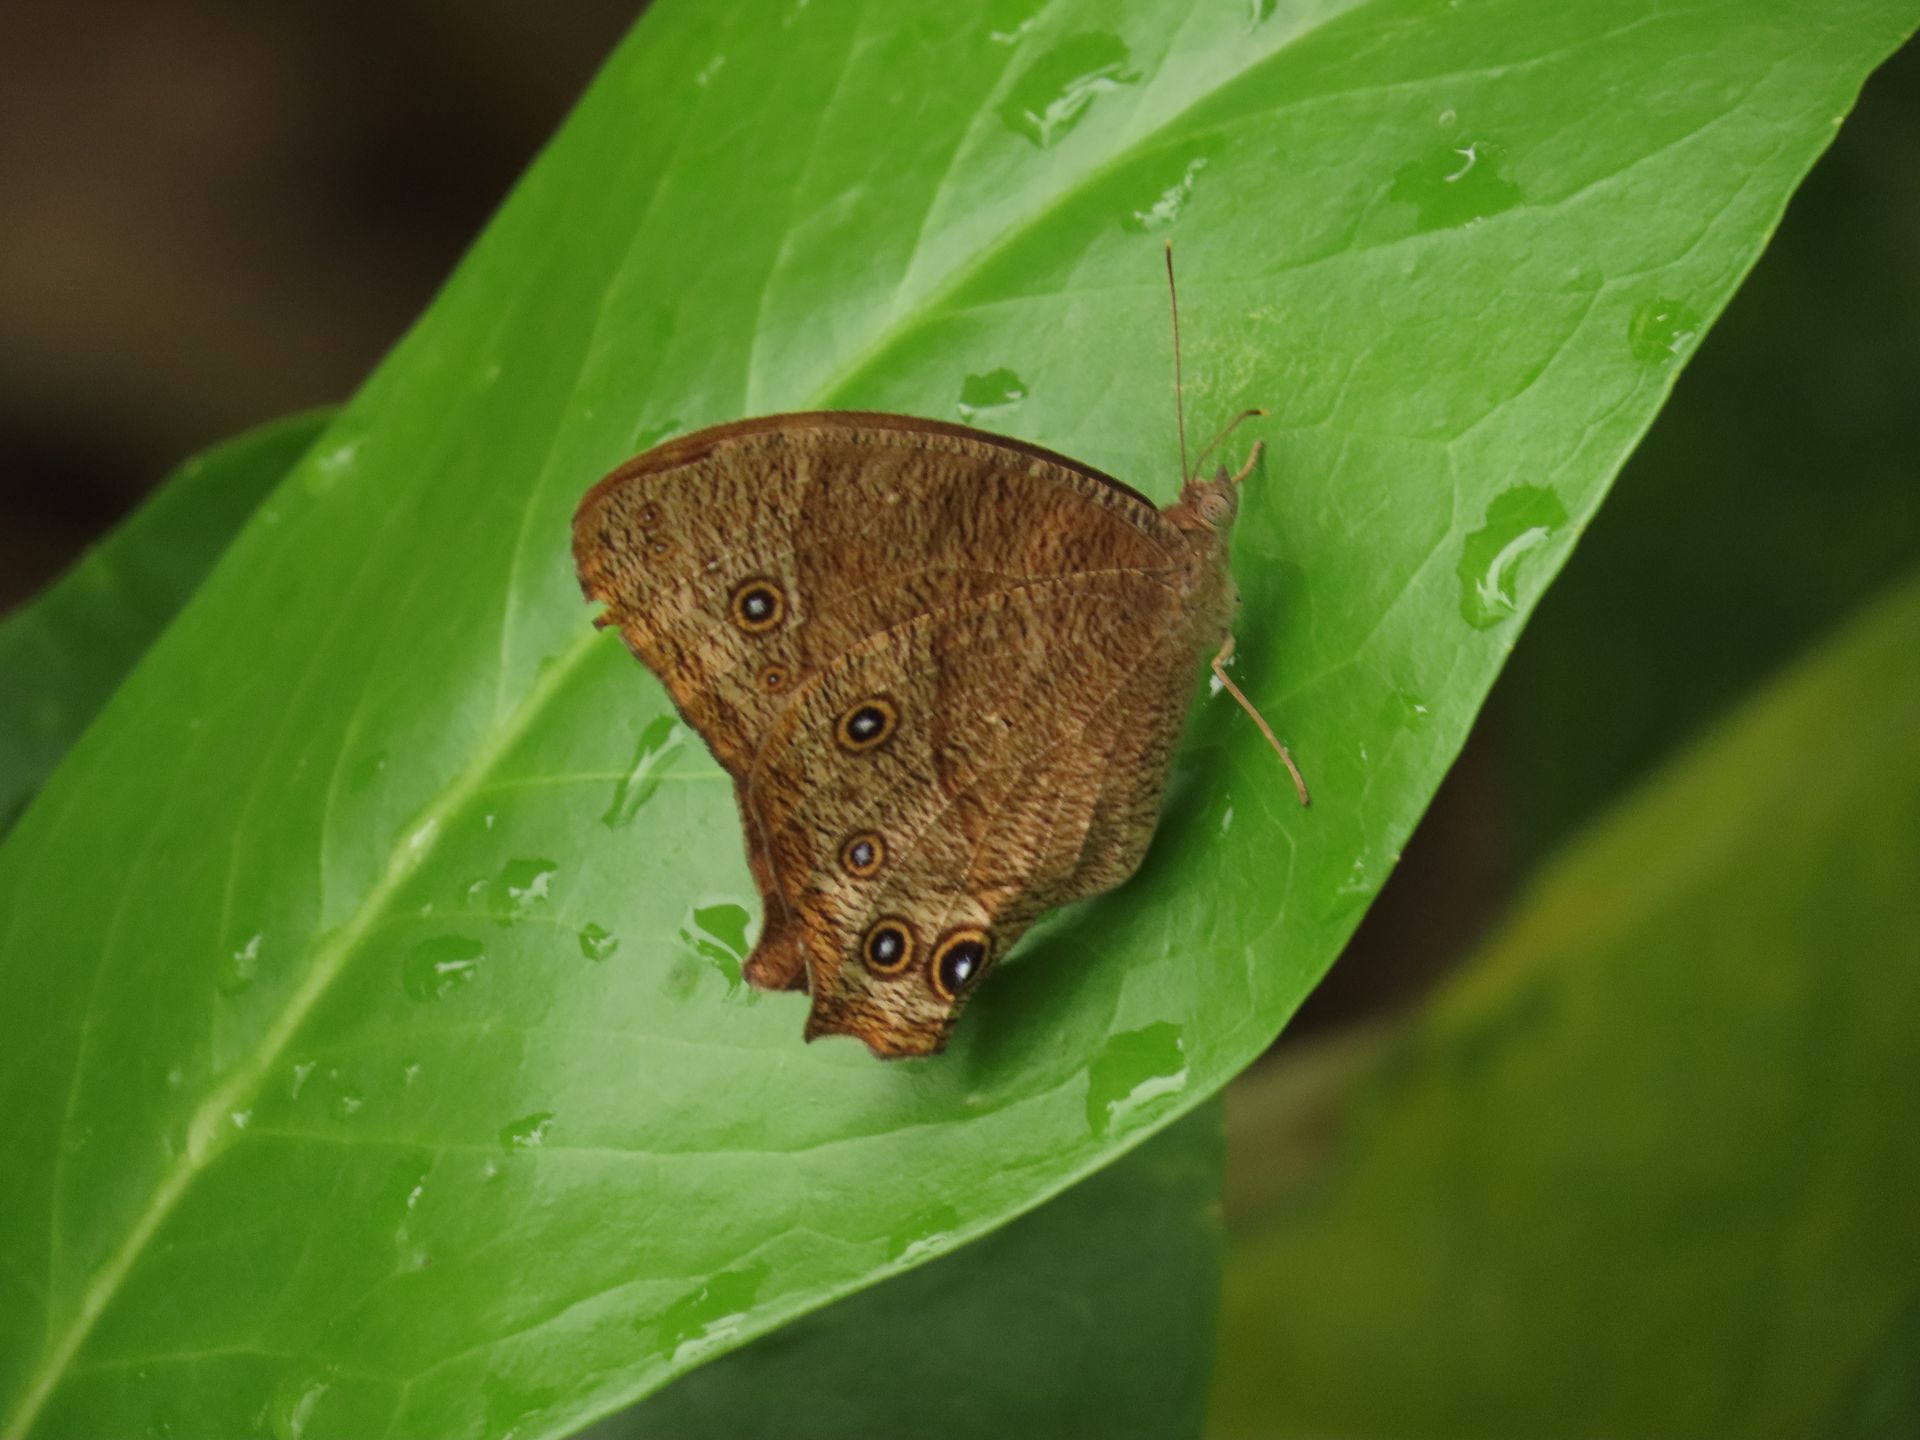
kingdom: Animalia
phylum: Arthropoda
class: Insecta
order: Lepidoptera
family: Nymphalidae
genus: Melanitis
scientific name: Melanitis leda
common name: Twilight brown
